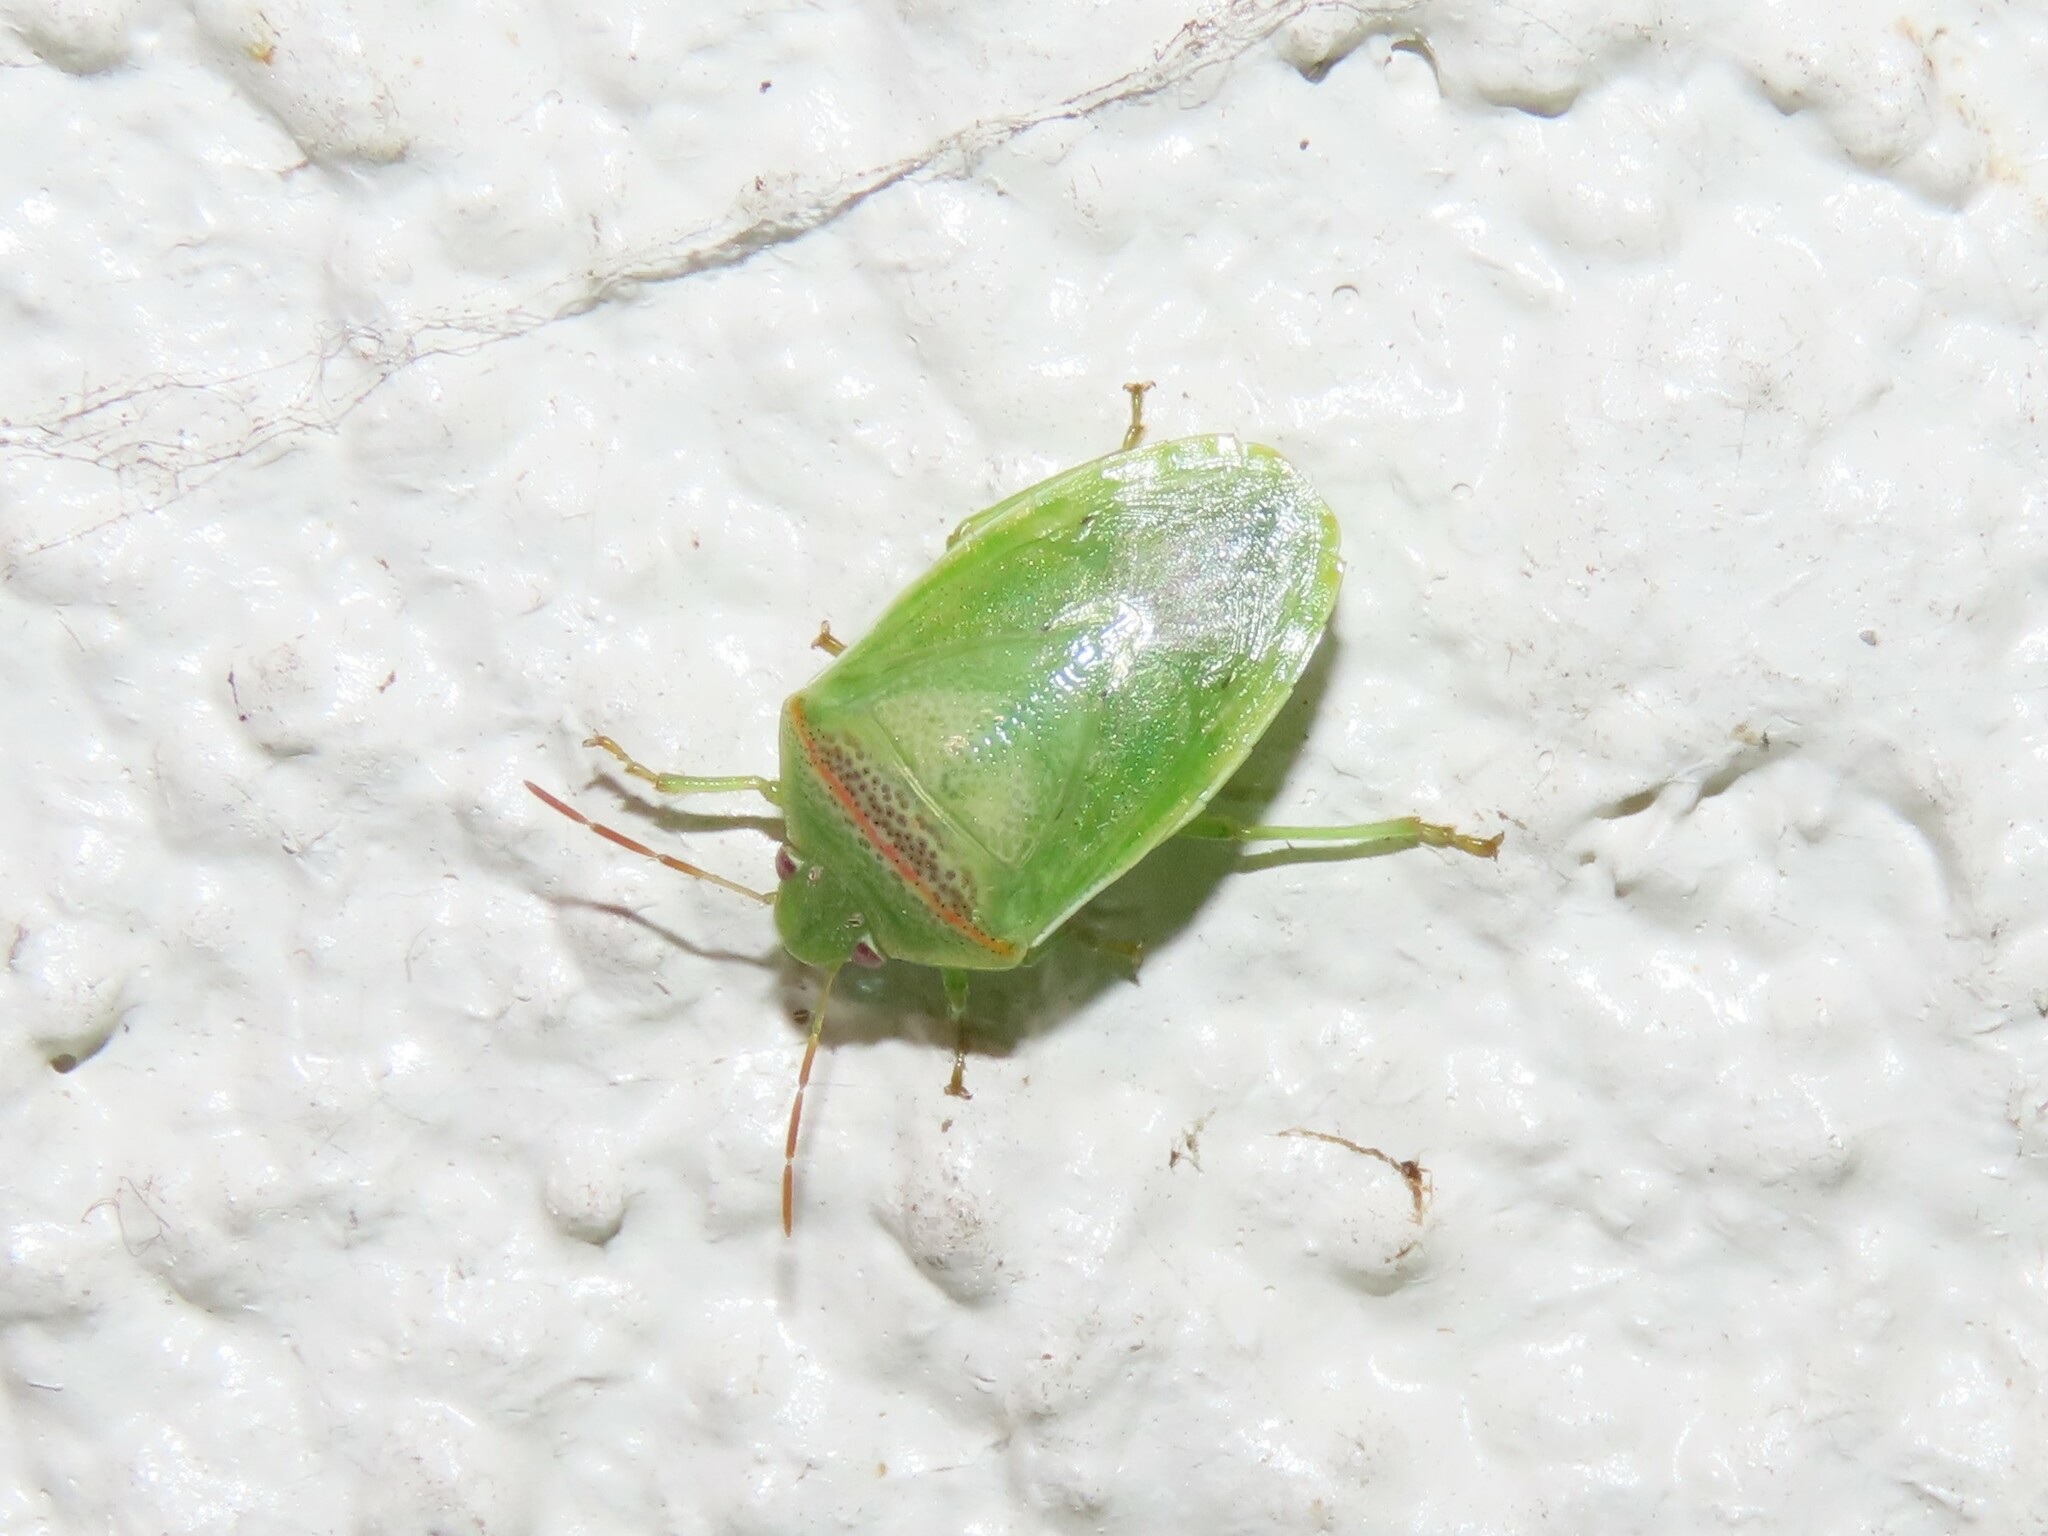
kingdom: Animalia
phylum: Arthropoda
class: Insecta
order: Hemiptera
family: Pentatomidae
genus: Piezodorus
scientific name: Piezodorus guildinii
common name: Redbanded stink bug
